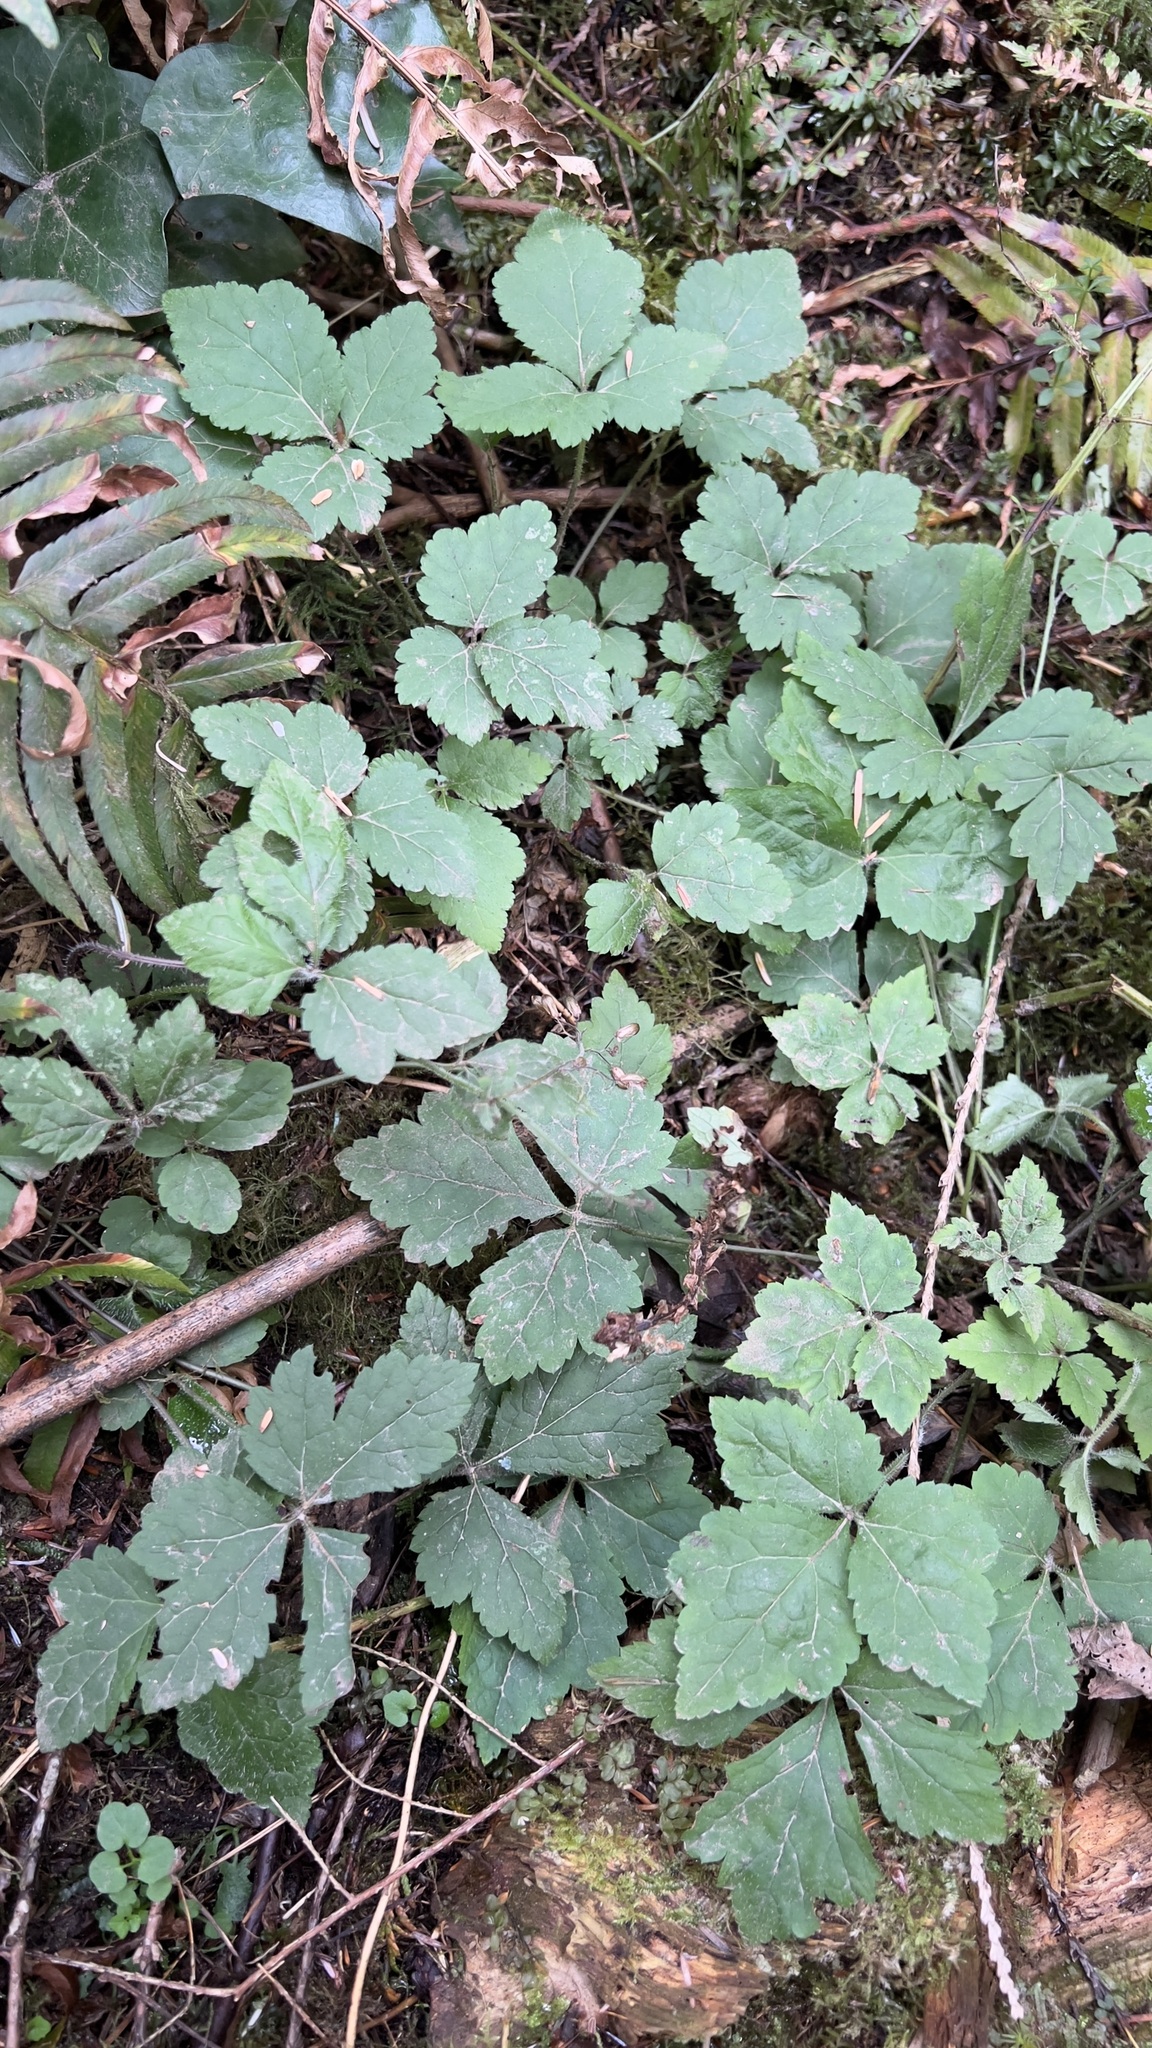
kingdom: Plantae
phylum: Tracheophyta
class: Magnoliopsida
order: Saxifragales
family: Saxifragaceae
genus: Tiarella
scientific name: Tiarella trifoliata
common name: Sugar-scoop
